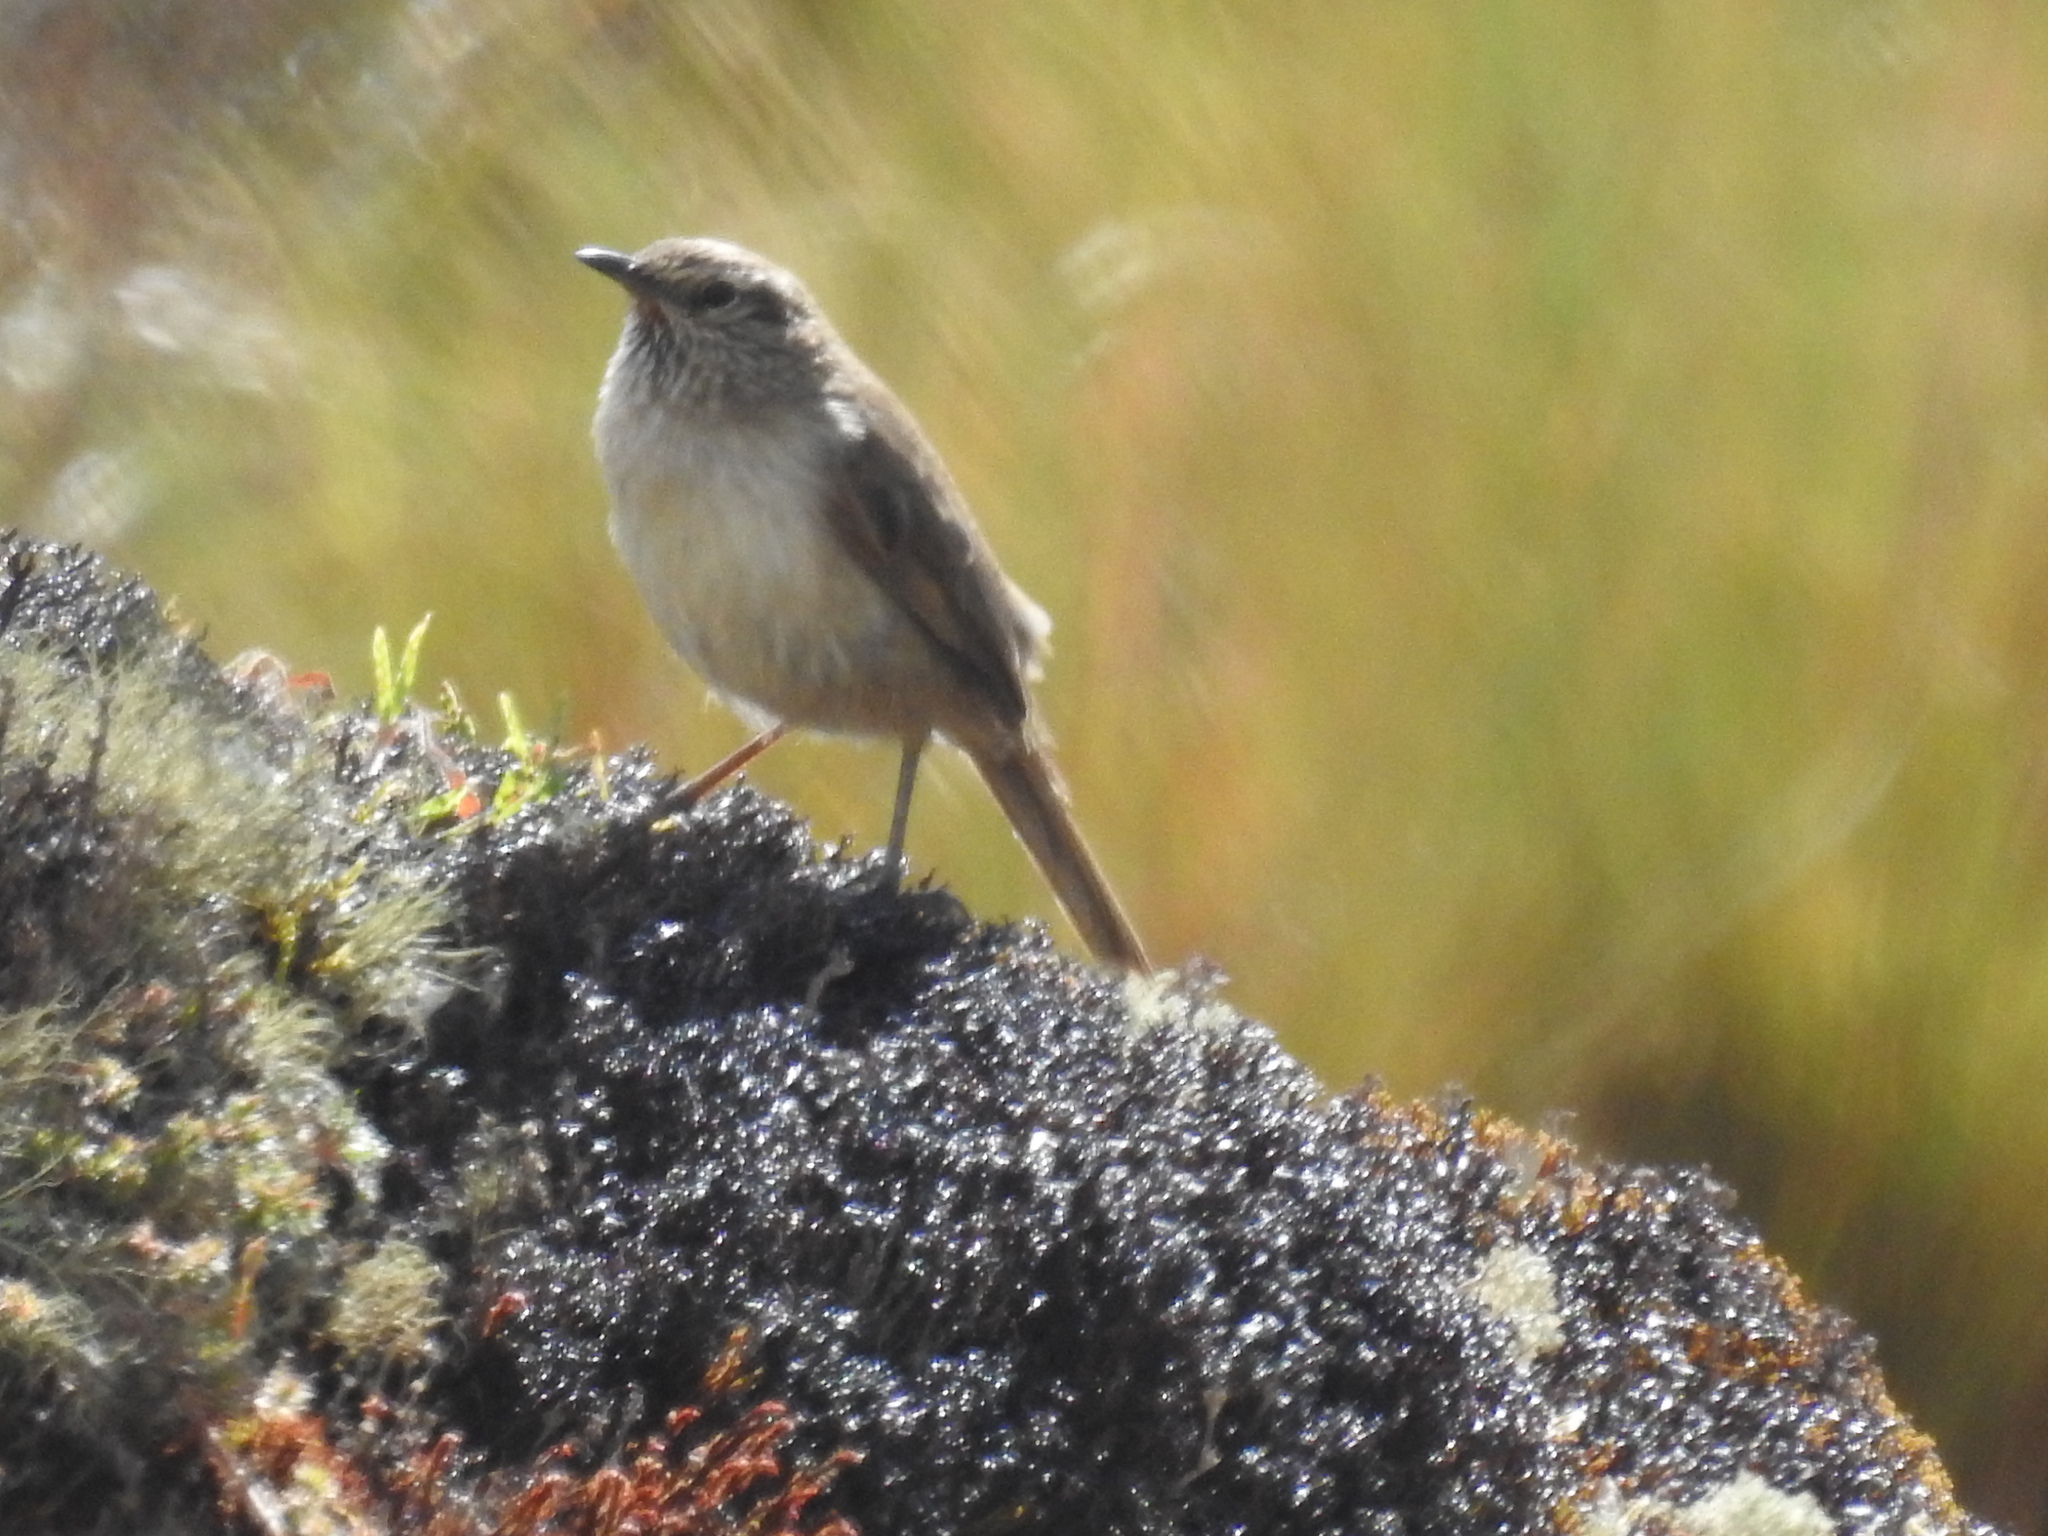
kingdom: Animalia
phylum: Chordata
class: Aves
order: Passeriformes
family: Furnariidae
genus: Asthenes
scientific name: Asthenes modesta
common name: Cordilleran canastero
